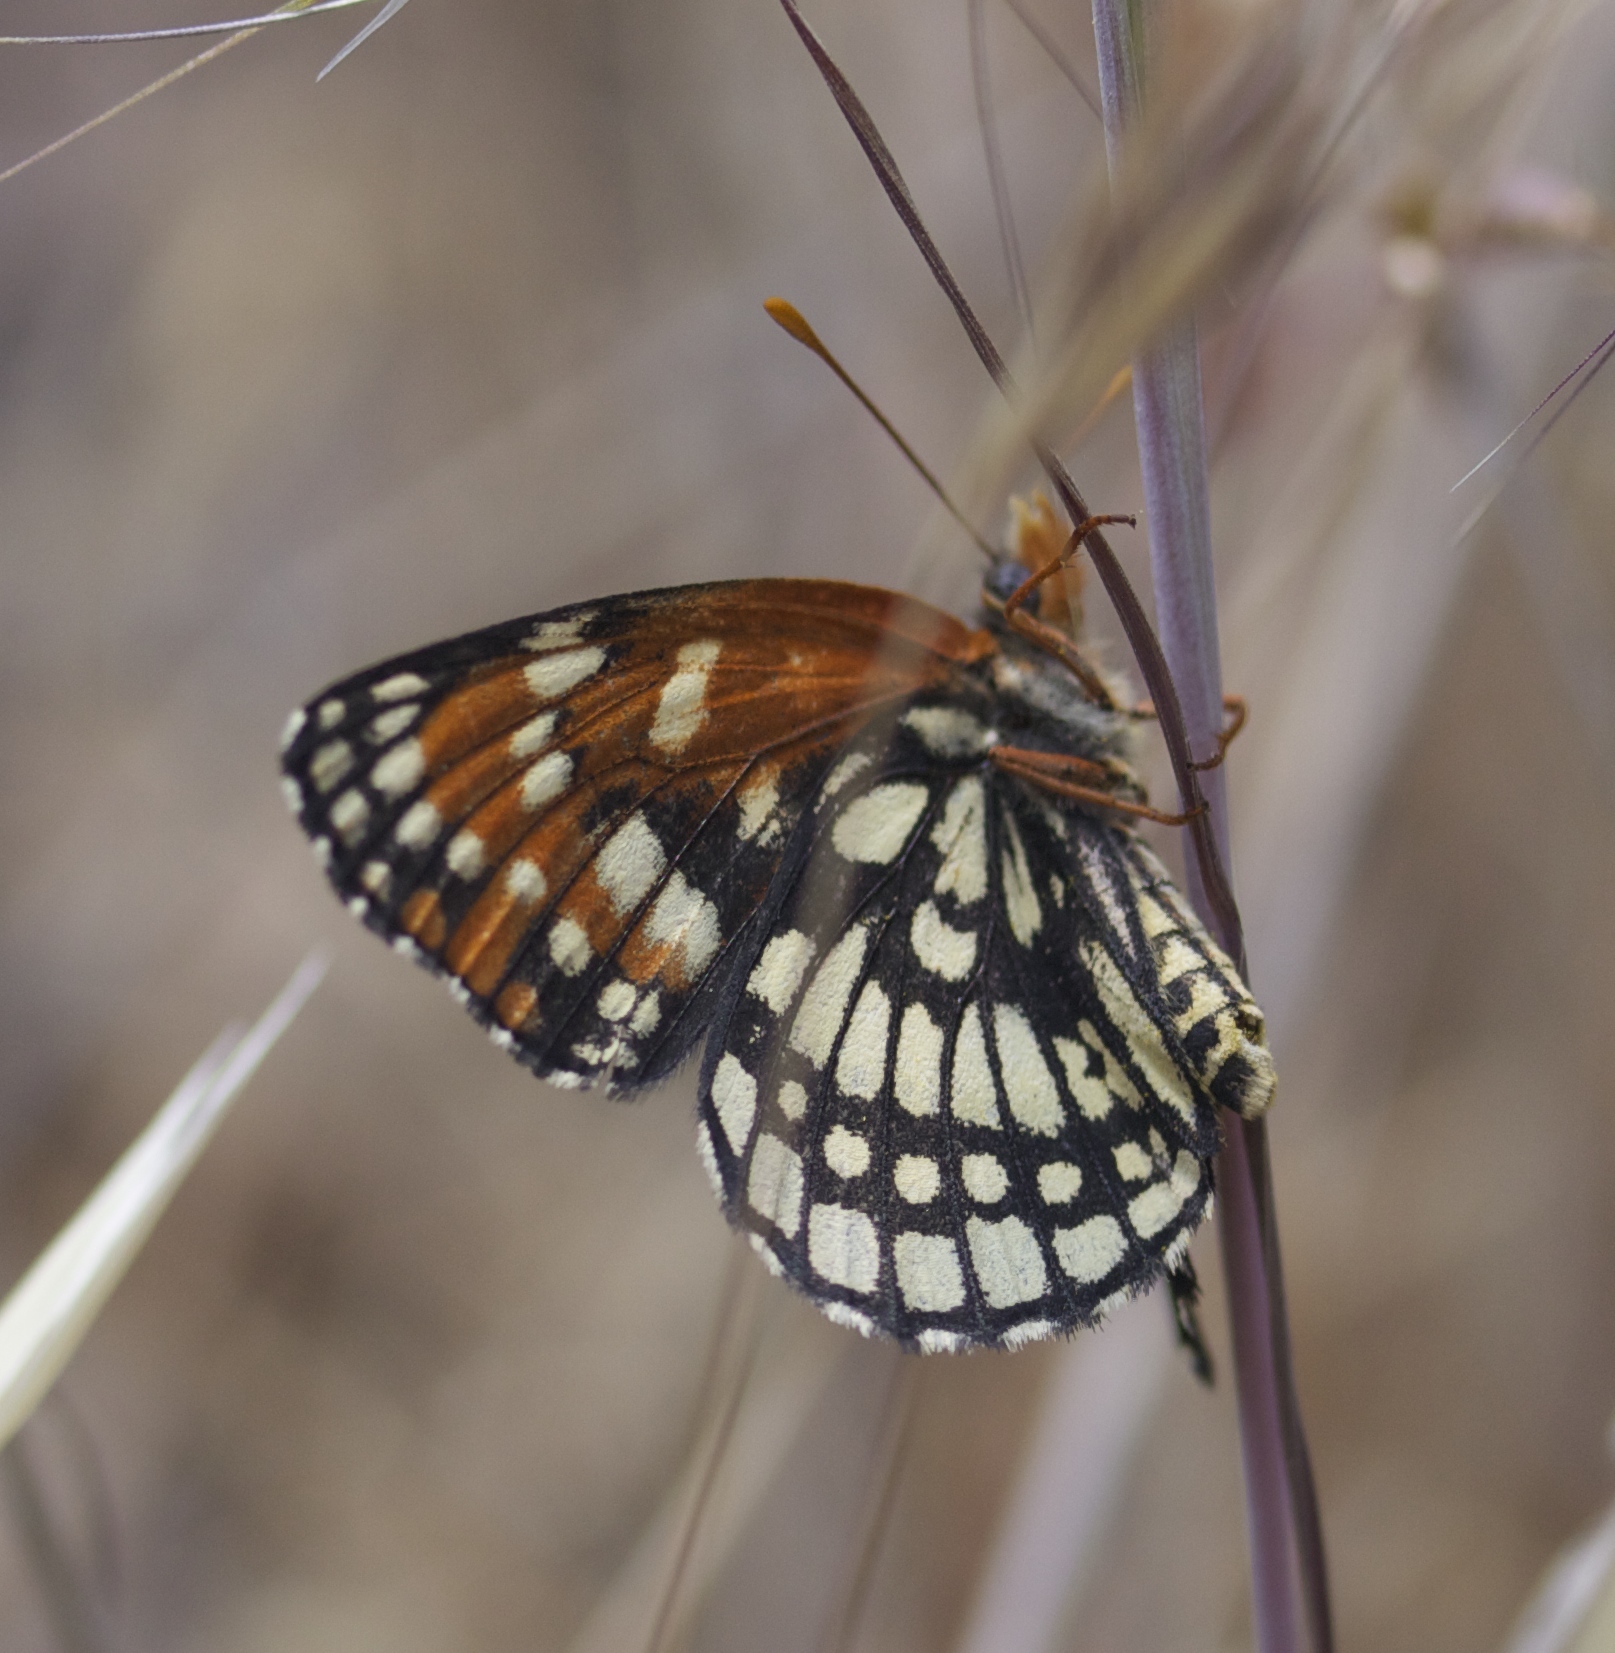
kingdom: Animalia
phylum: Arthropoda
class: Insecta
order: Lepidoptera
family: Nymphalidae
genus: Thessalia
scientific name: Thessalia leanira
